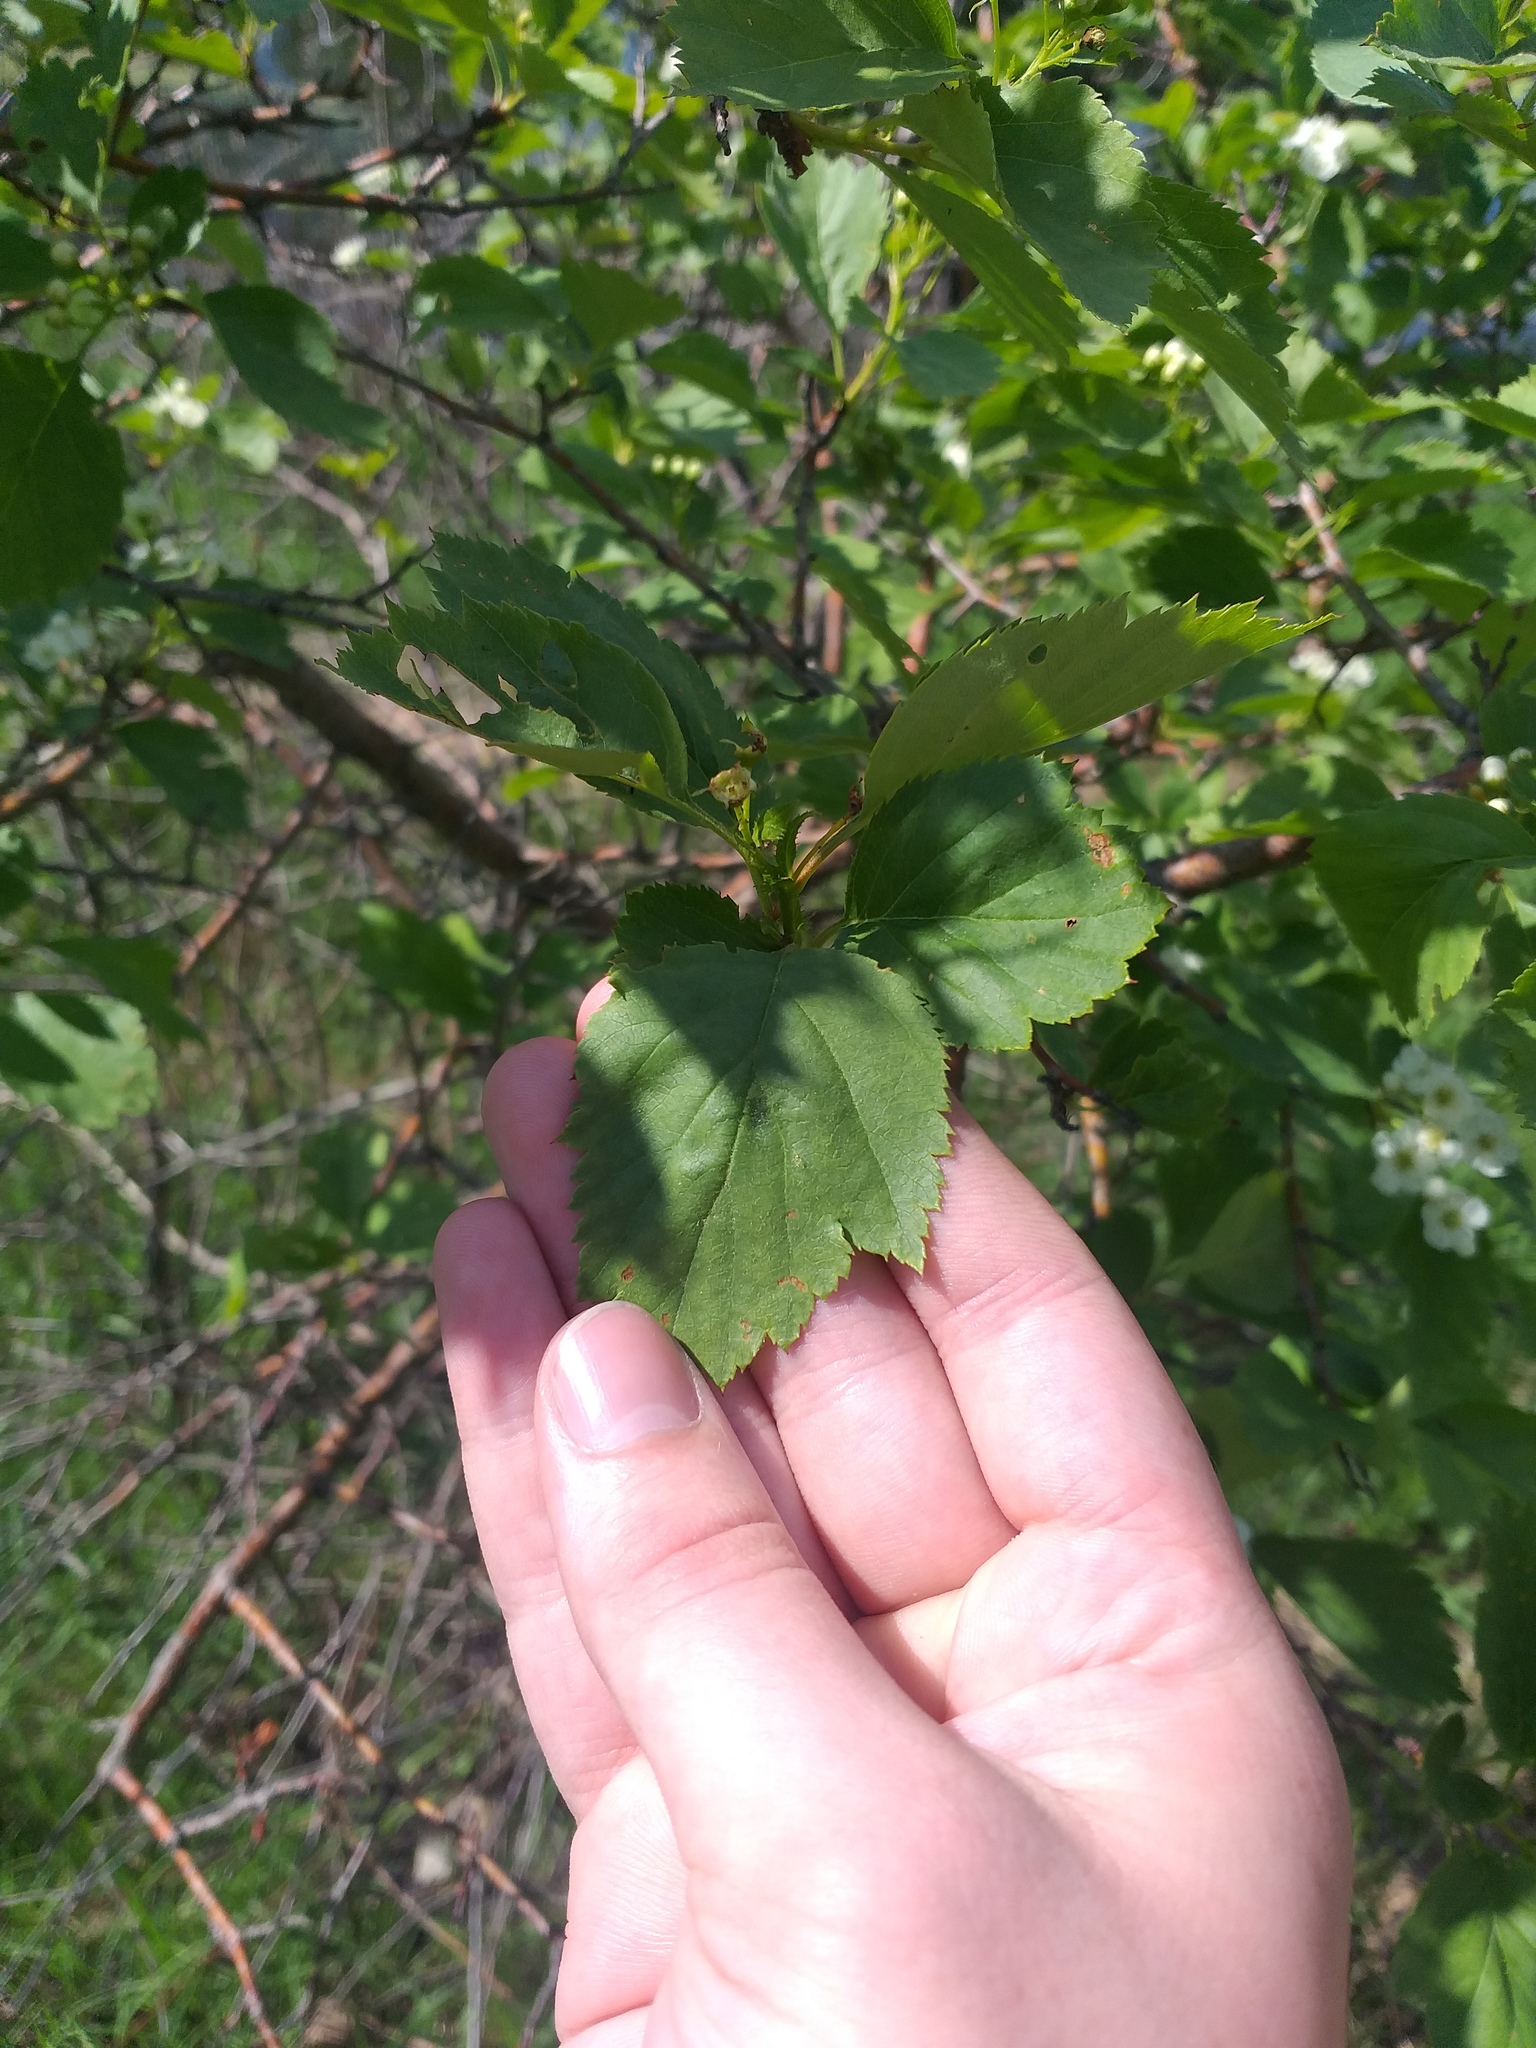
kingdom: Plantae
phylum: Tracheophyta
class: Magnoliopsida
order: Rosales
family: Rosaceae
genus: Crataegus
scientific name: Crataegus chlorocarpa
